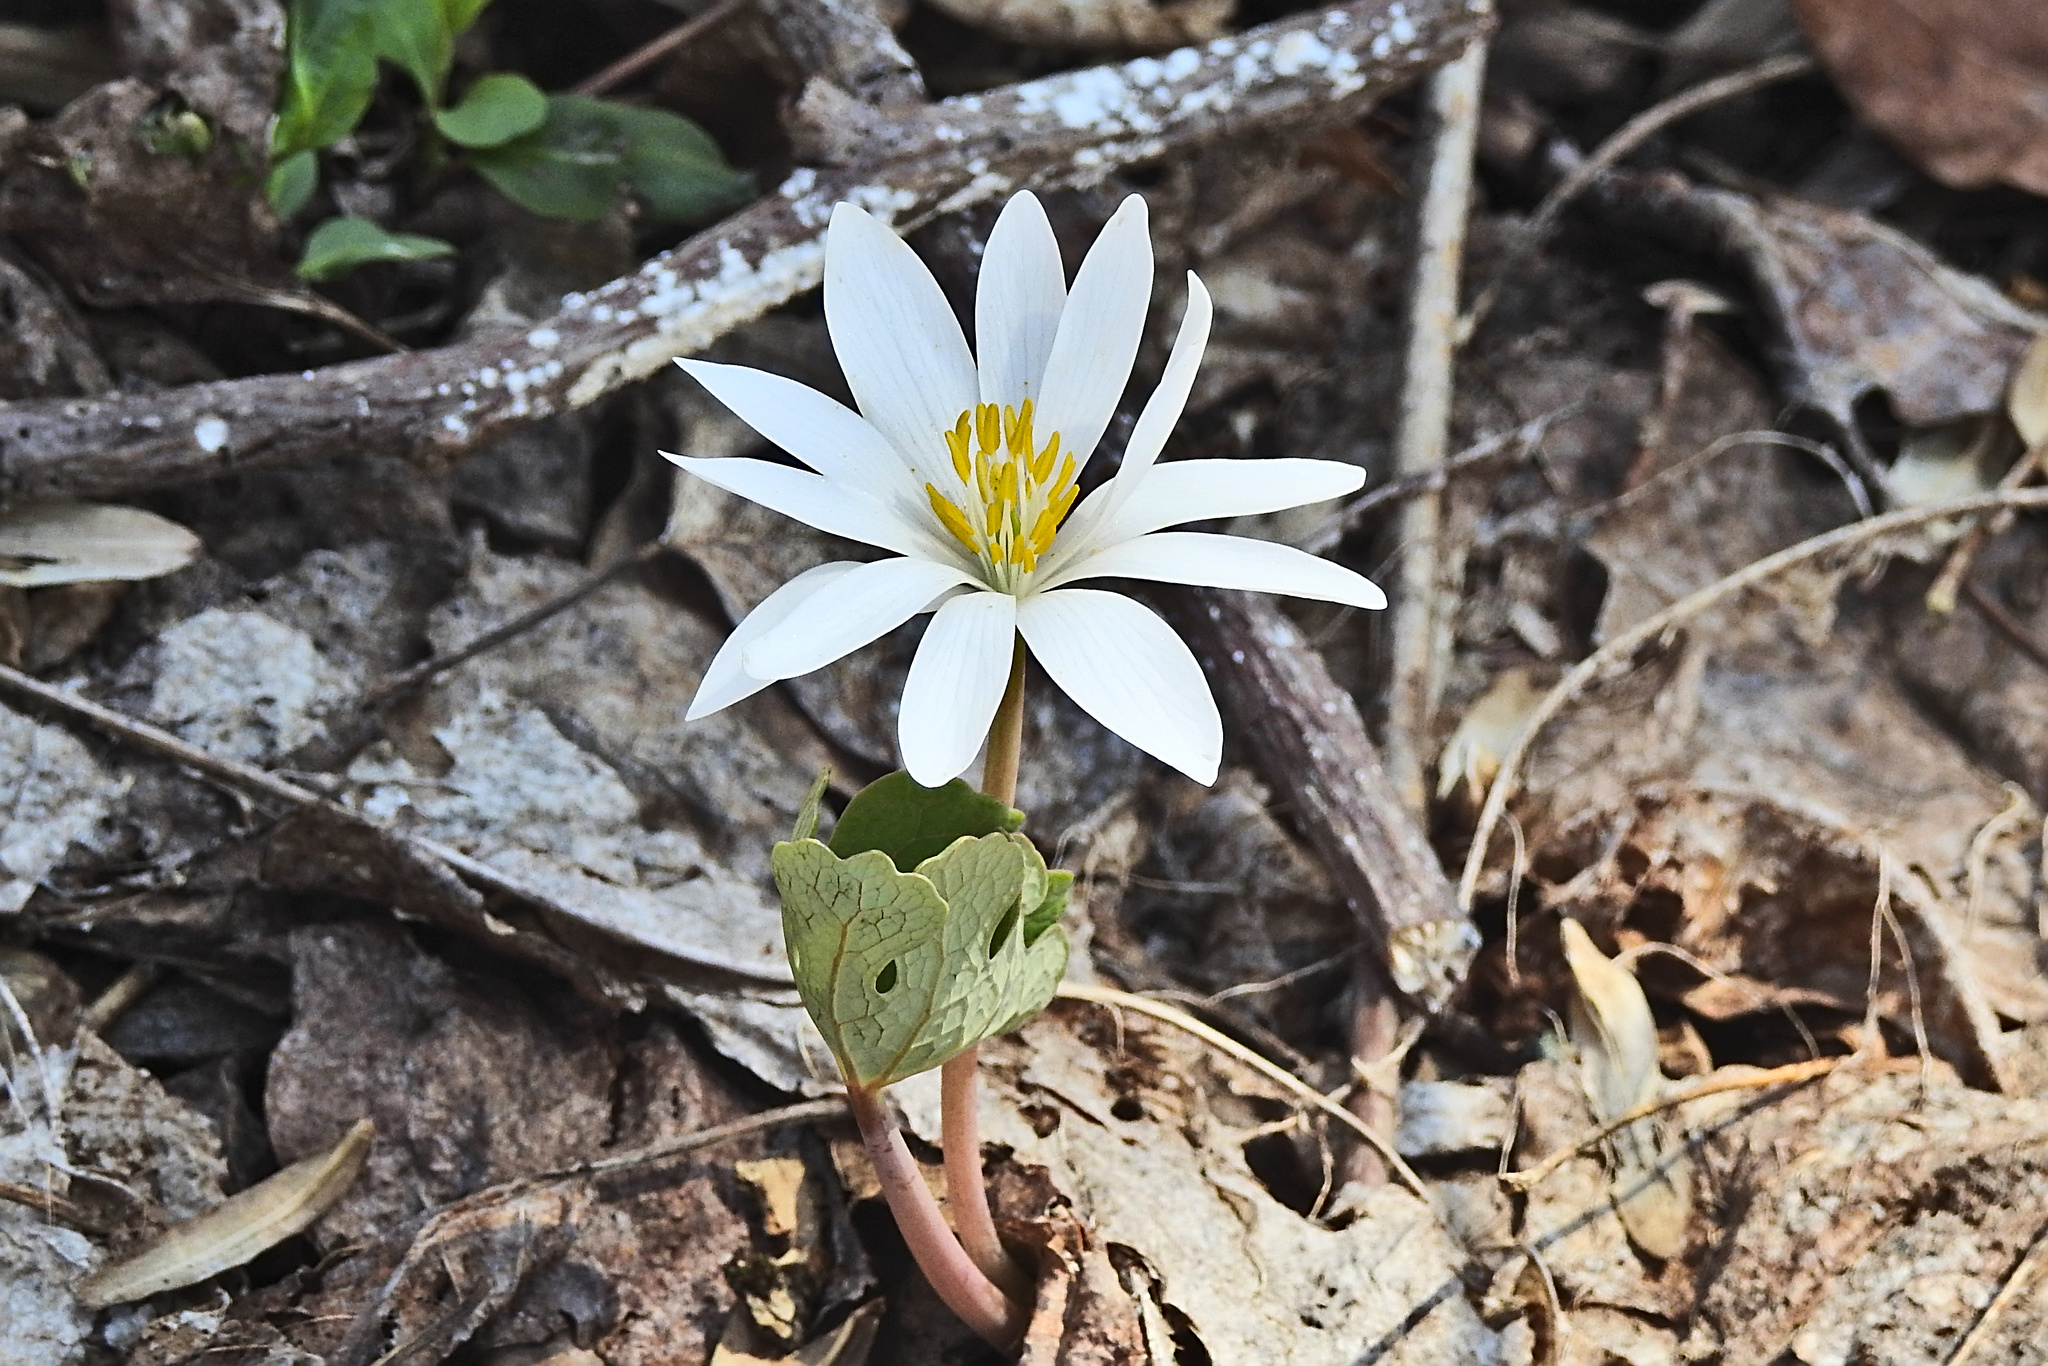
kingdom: Plantae
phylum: Tracheophyta
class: Magnoliopsida
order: Ranunculales
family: Papaveraceae
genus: Sanguinaria
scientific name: Sanguinaria canadensis
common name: Bloodroot
